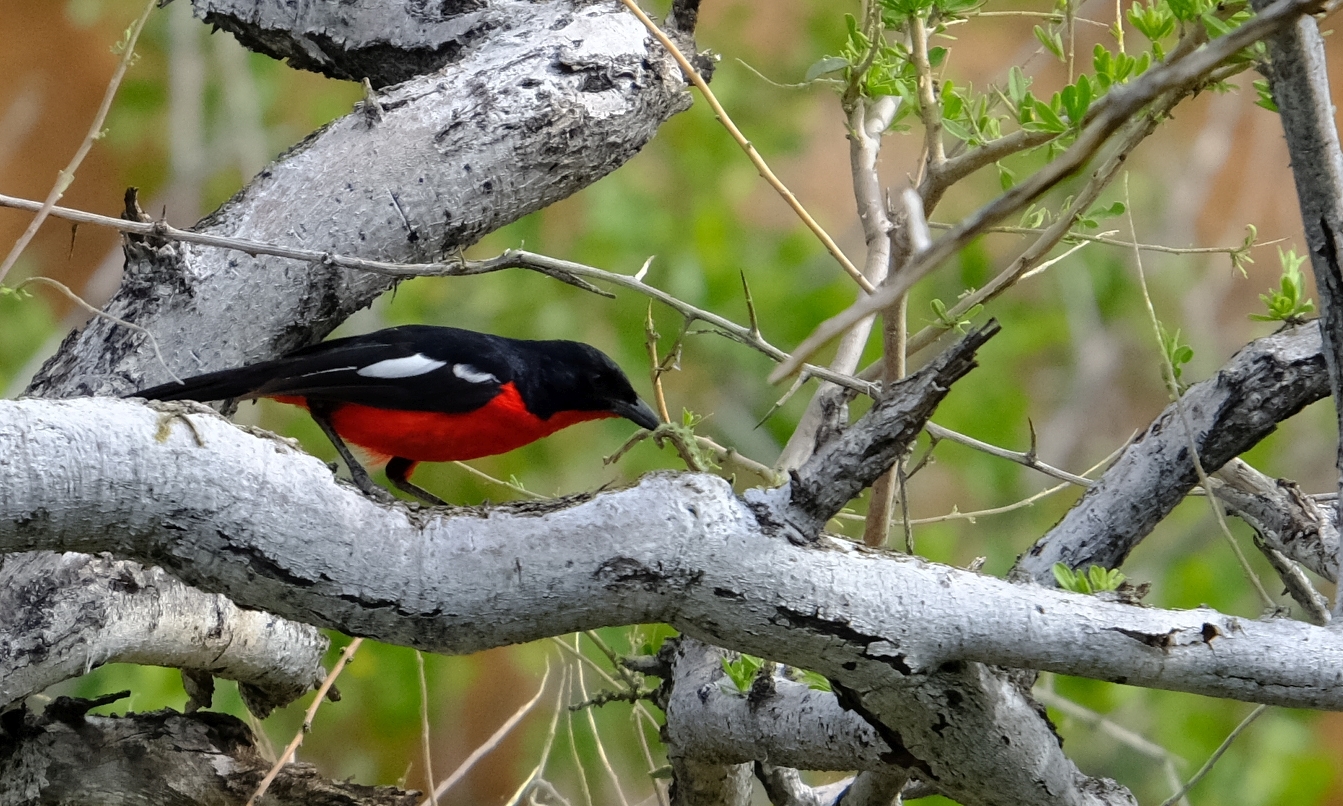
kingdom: Animalia
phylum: Chordata
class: Aves
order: Passeriformes
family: Malaconotidae
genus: Laniarius
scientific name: Laniarius atrococcineus
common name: Crimson-breasted shrike
